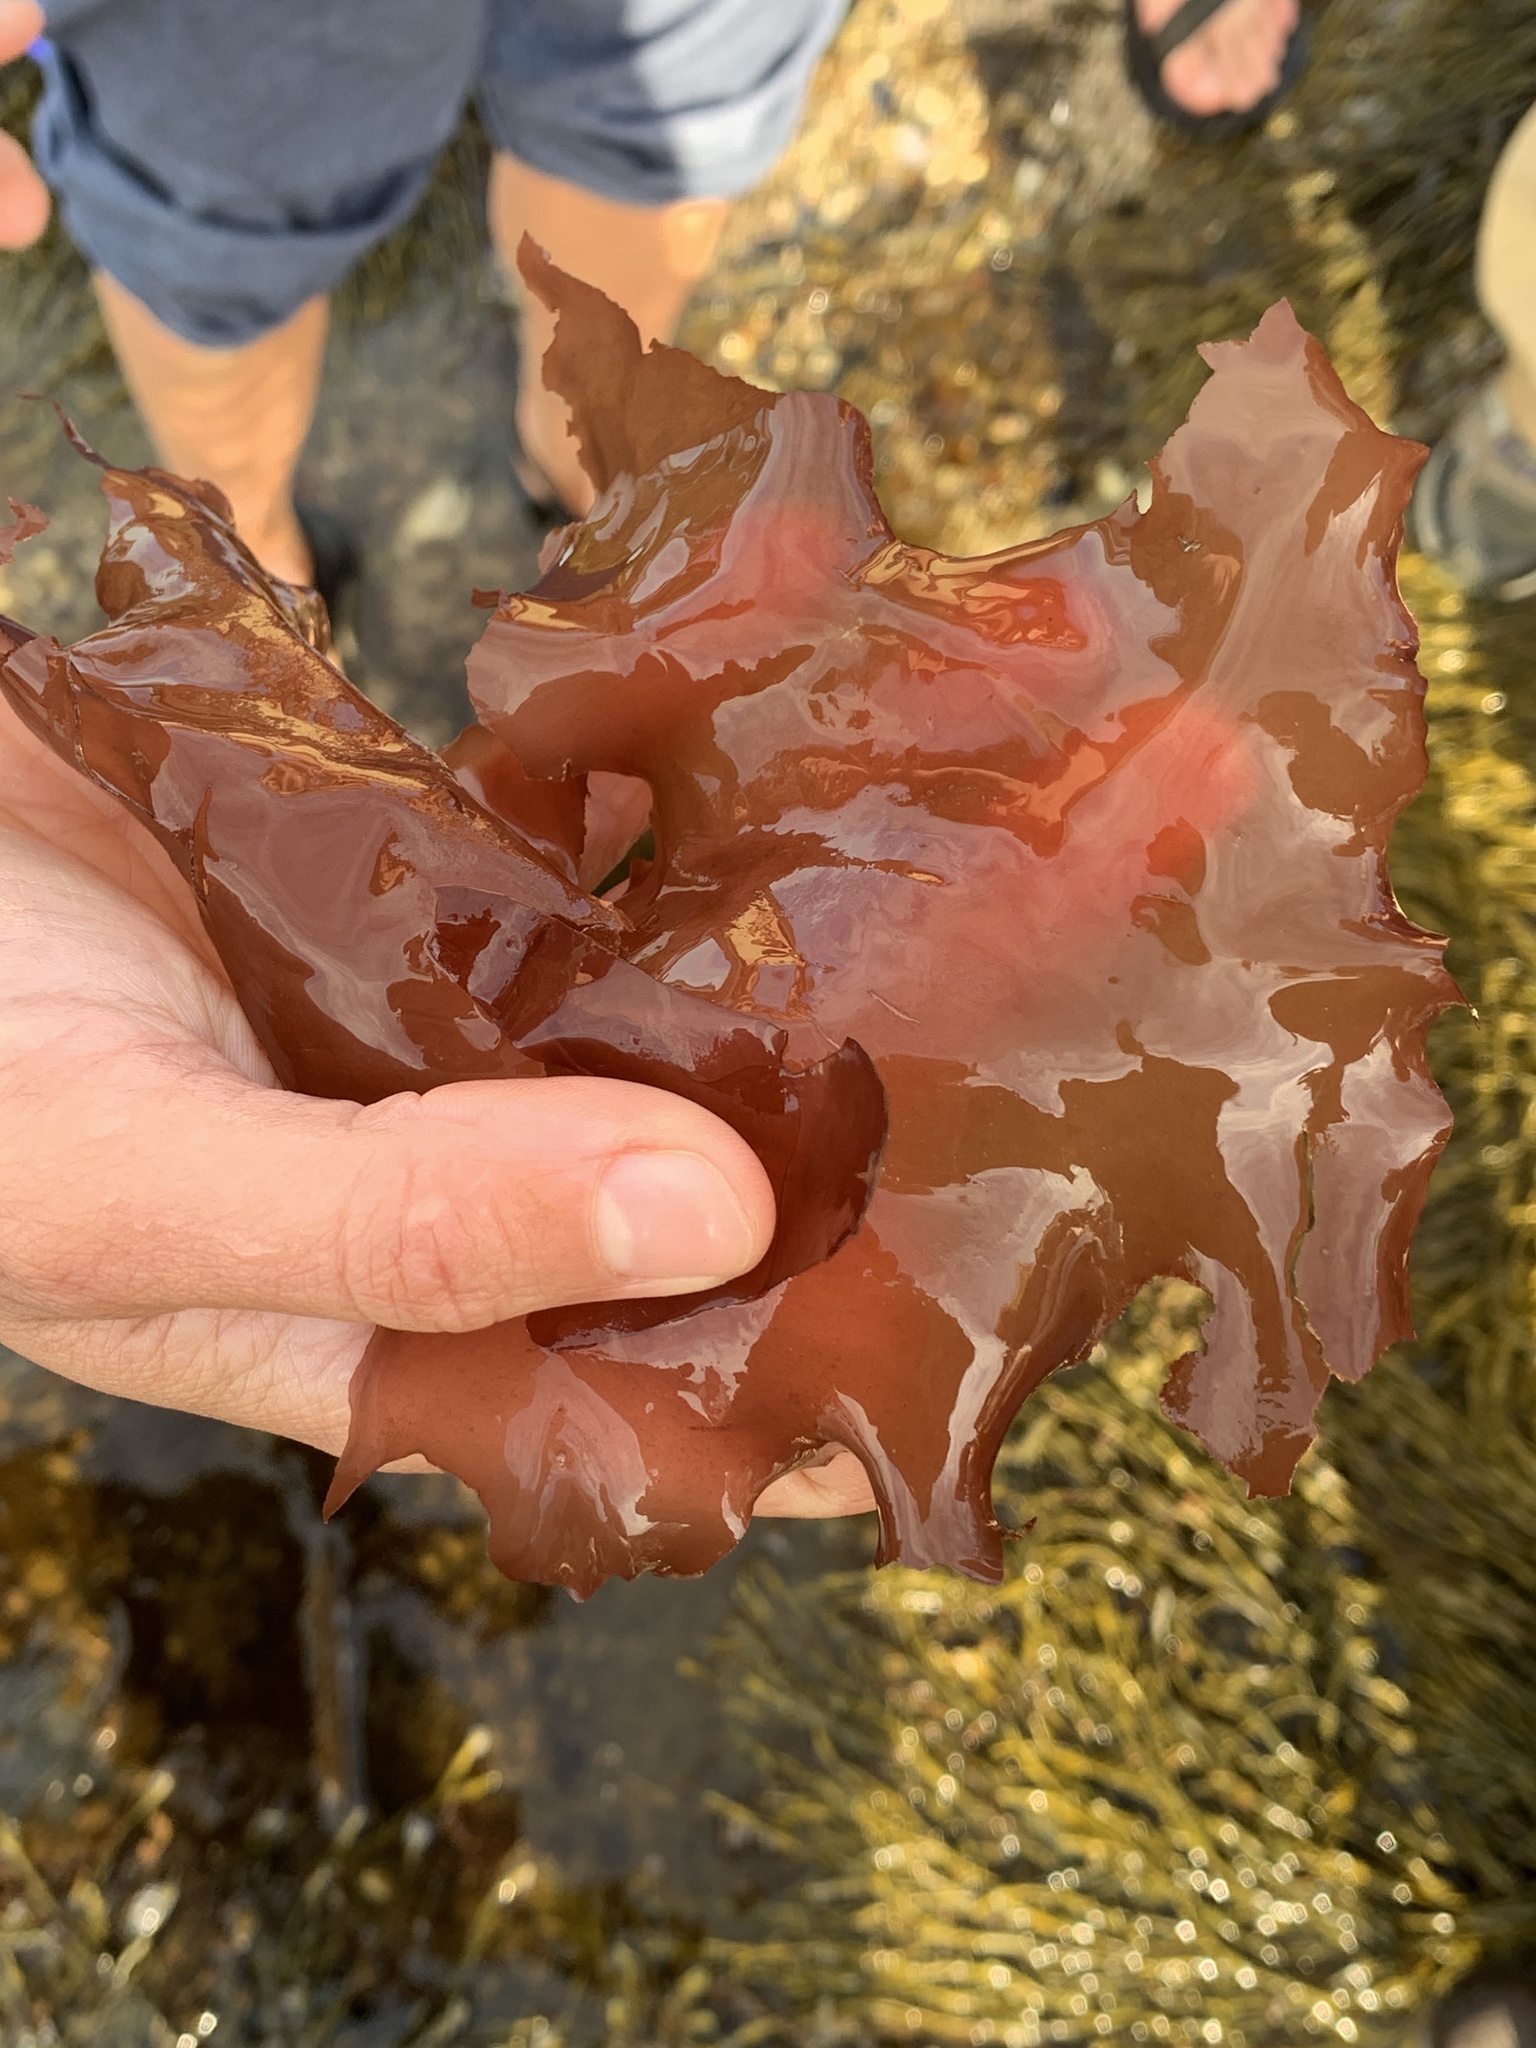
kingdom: Plantae
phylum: Rhodophyta
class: Florideophyceae
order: Palmariales
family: Palmariaceae
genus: Palmaria
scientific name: Palmaria palmata
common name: Dulse
